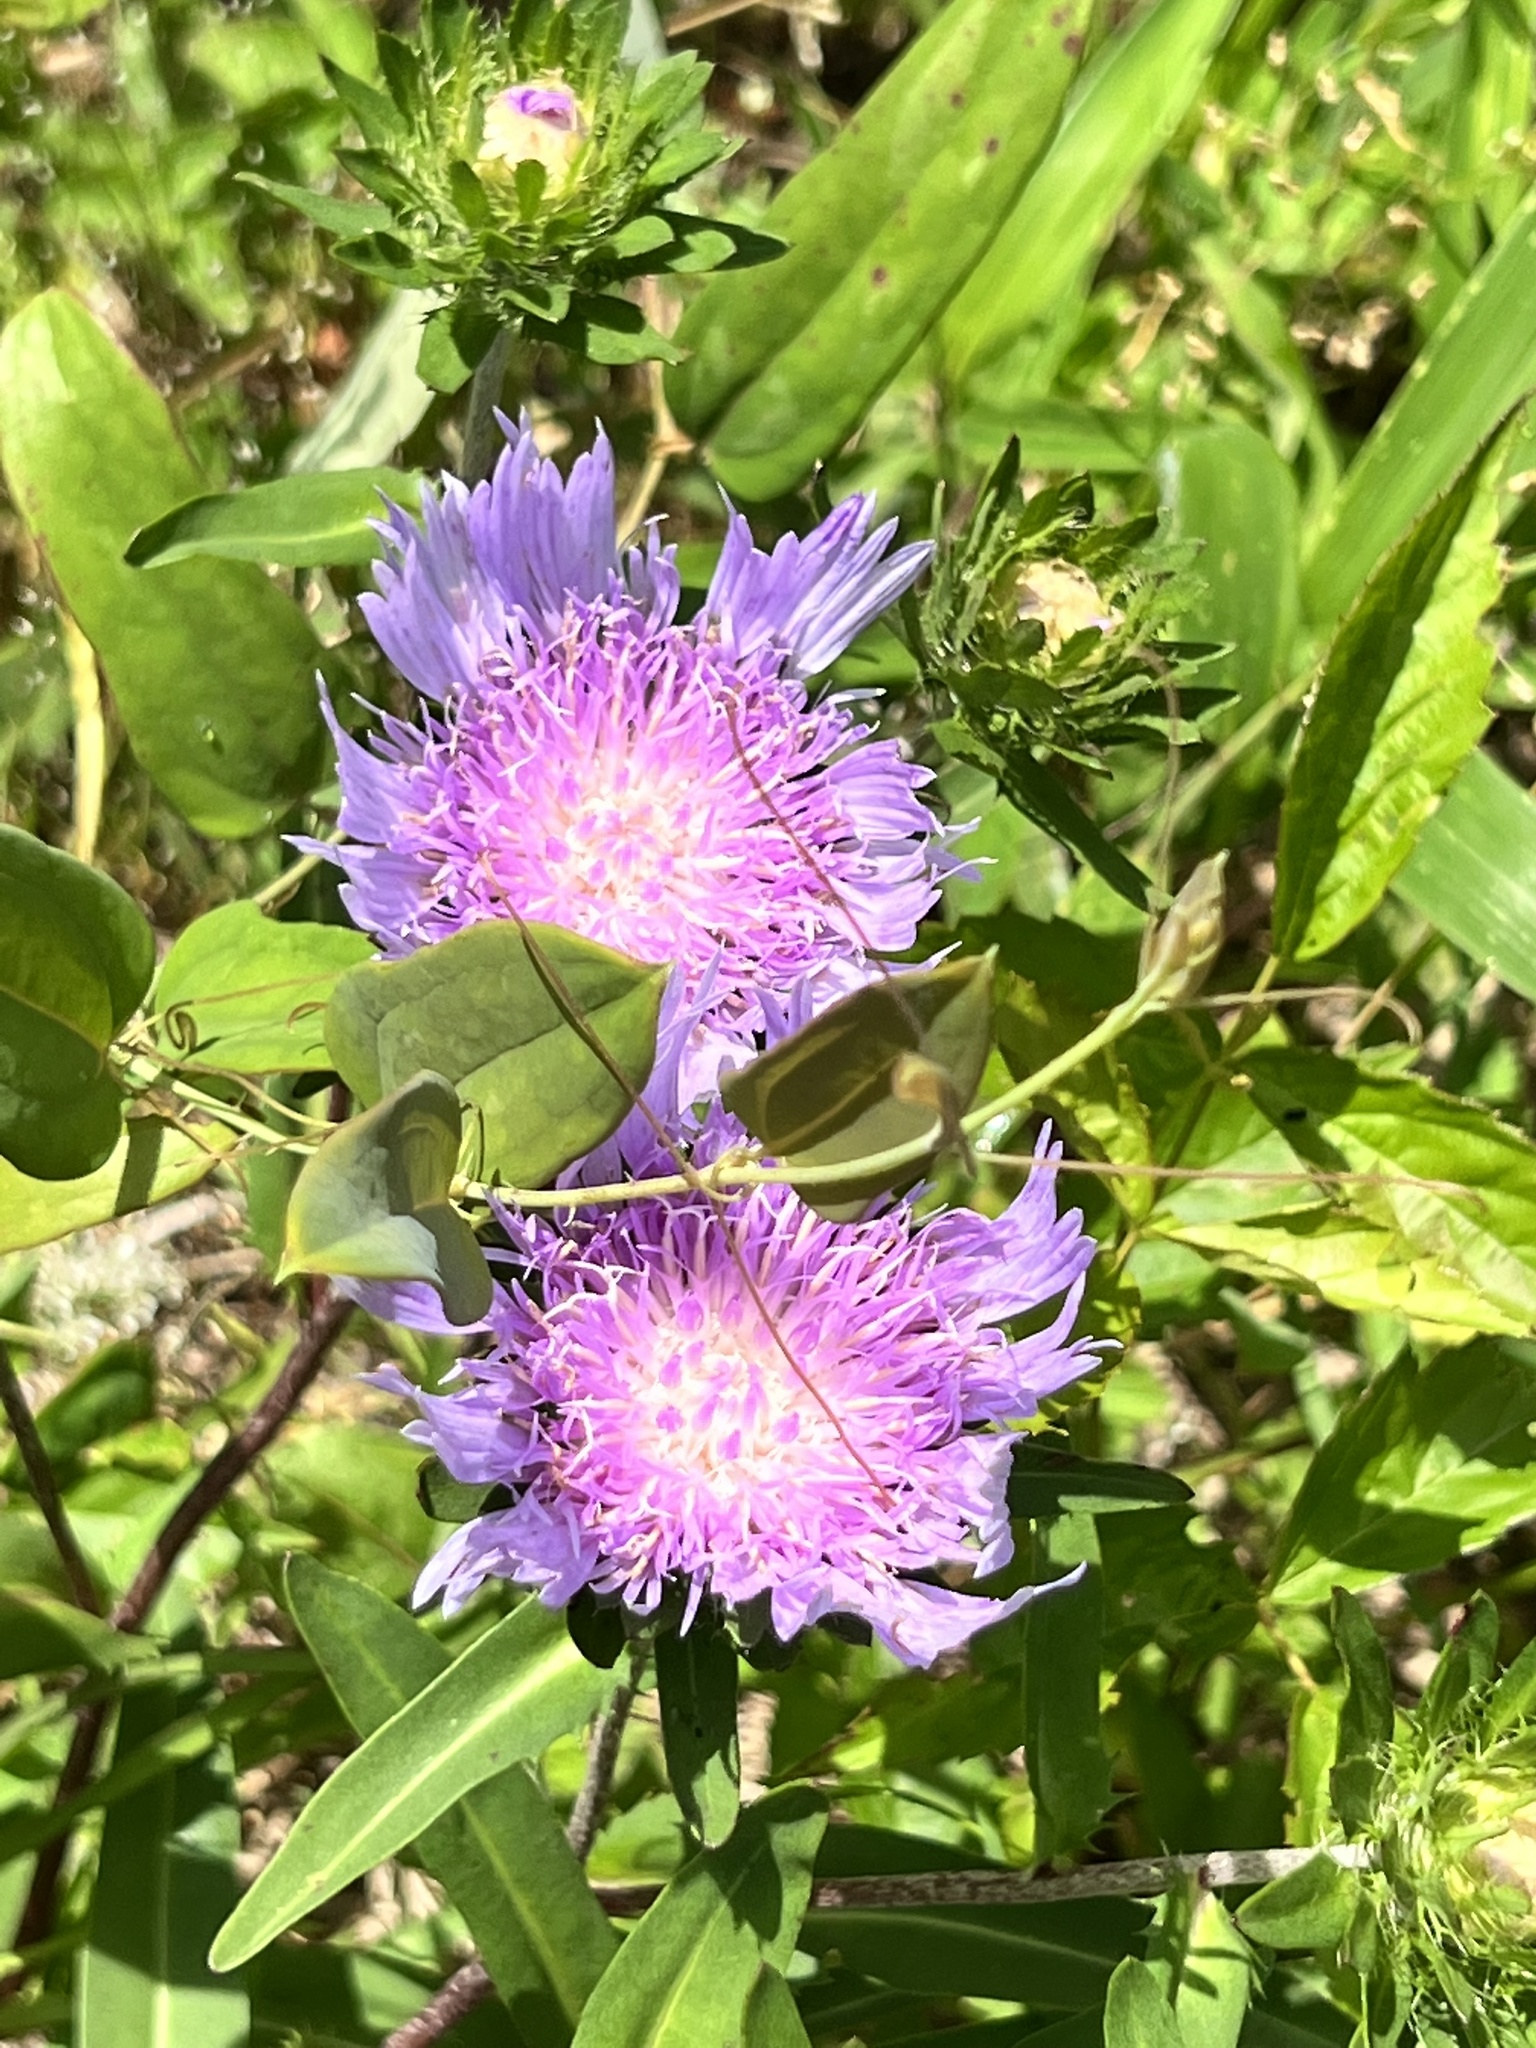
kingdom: Plantae
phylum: Tracheophyta
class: Magnoliopsida
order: Asterales
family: Asteraceae
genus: Stokesia
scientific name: Stokesia laevis
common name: Stokes'-aster
